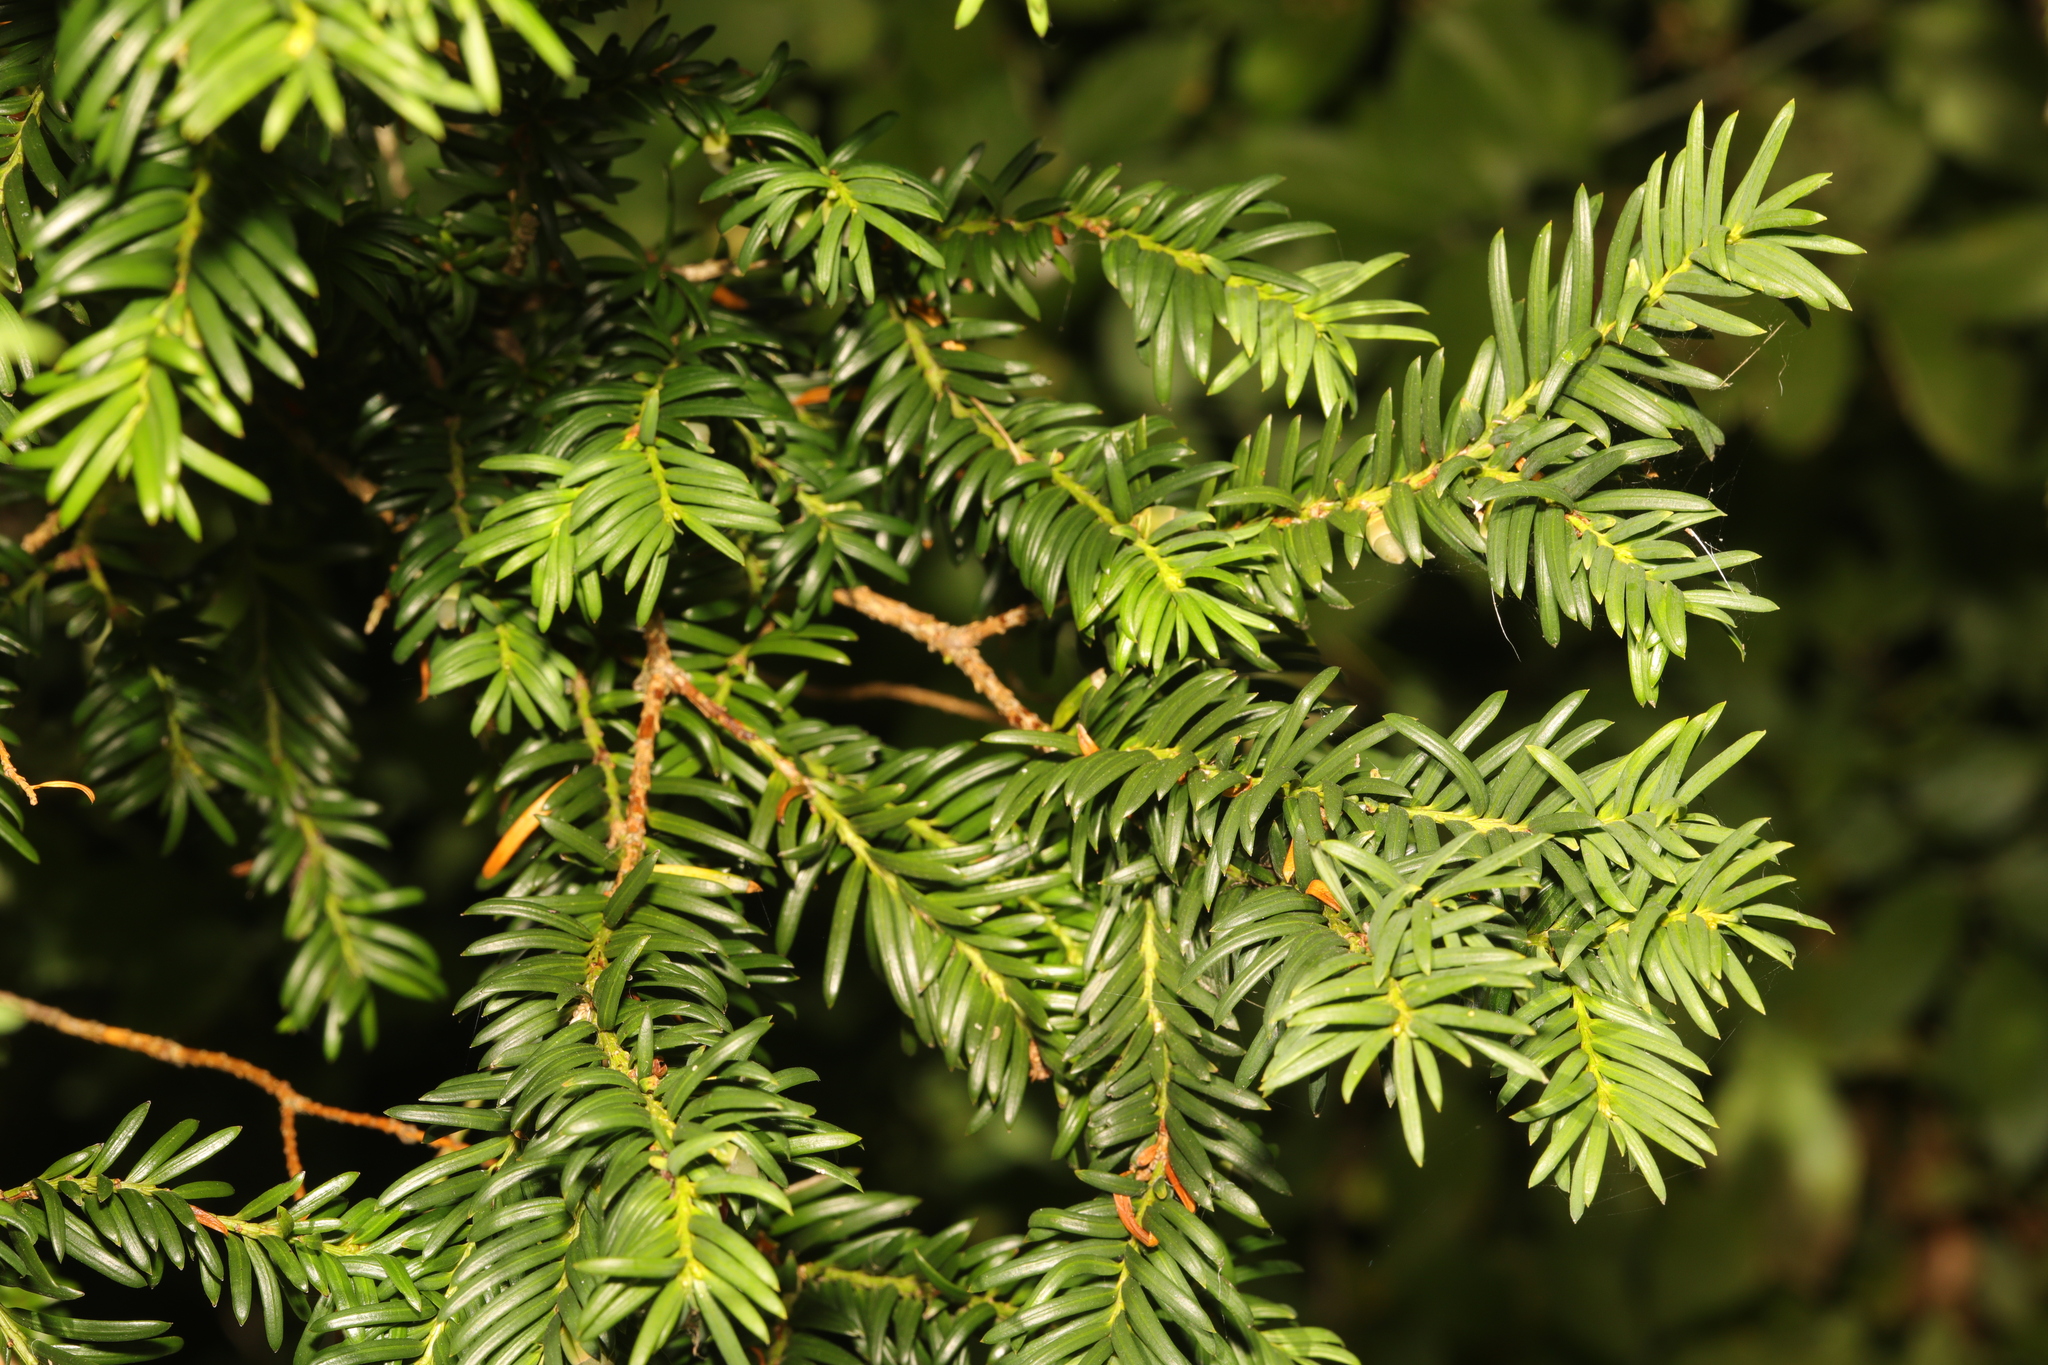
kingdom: Plantae
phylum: Tracheophyta
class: Pinopsida
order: Pinales
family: Taxaceae
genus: Taxus
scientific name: Taxus baccata
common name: Yew
